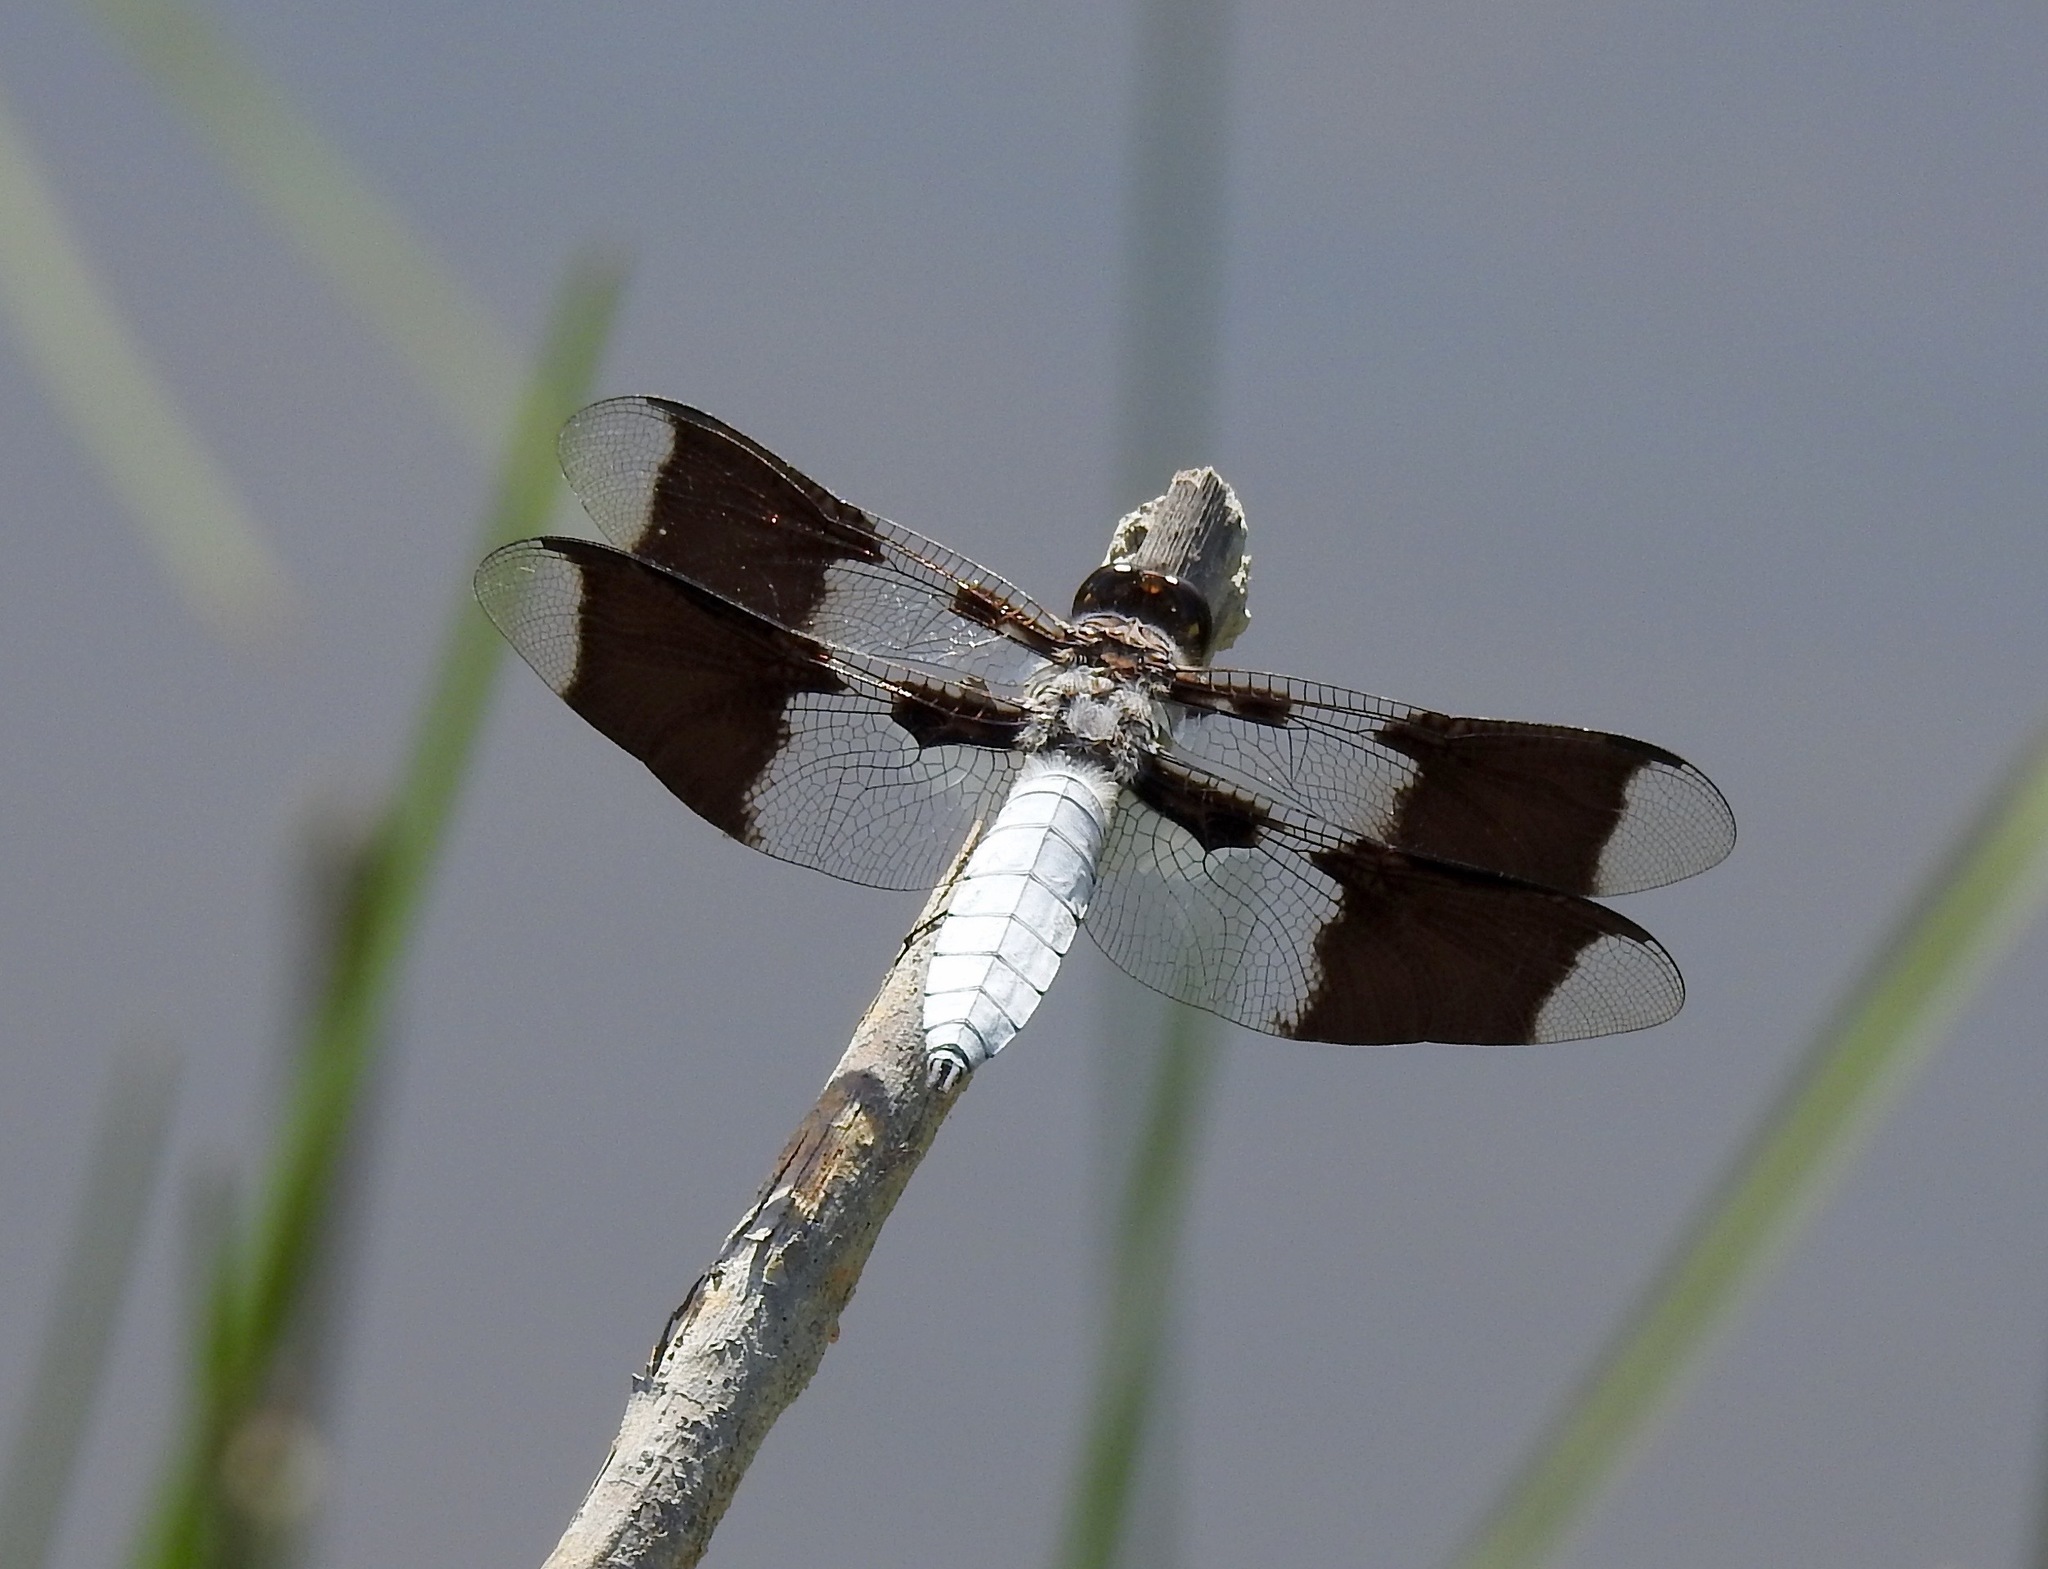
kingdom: Animalia
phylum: Arthropoda
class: Insecta
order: Odonata
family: Libellulidae
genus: Plathemis
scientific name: Plathemis lydia
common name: Common whitetail
